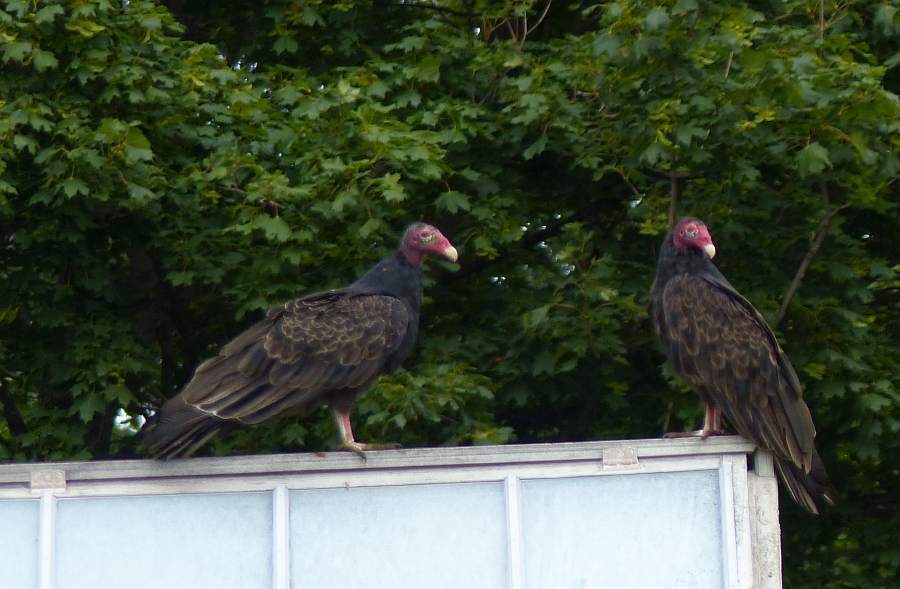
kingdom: Animalia
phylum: Chordata
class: Aves
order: Accipitriformes
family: Cathartidae
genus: Cathartes
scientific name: Cathartes aura
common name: Turkey vulture
